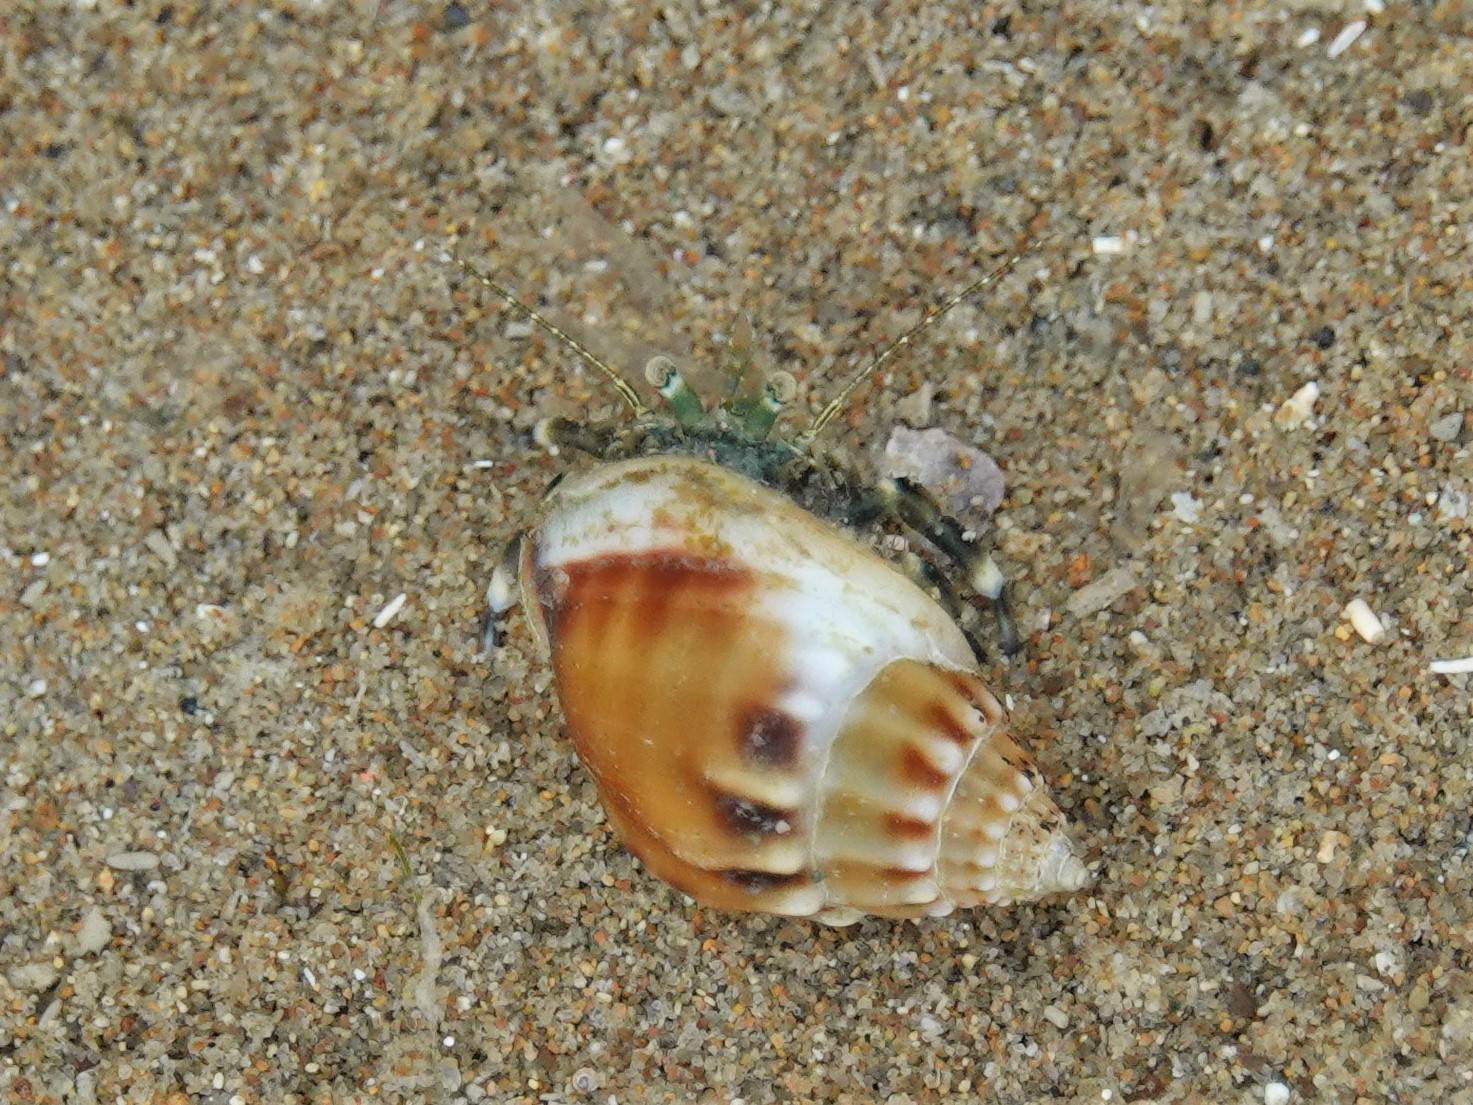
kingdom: Animalia
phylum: Mollusca
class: Gastropoda
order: Neogastropoda
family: Nassariidae
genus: Tritia
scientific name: Tritia burchardi
